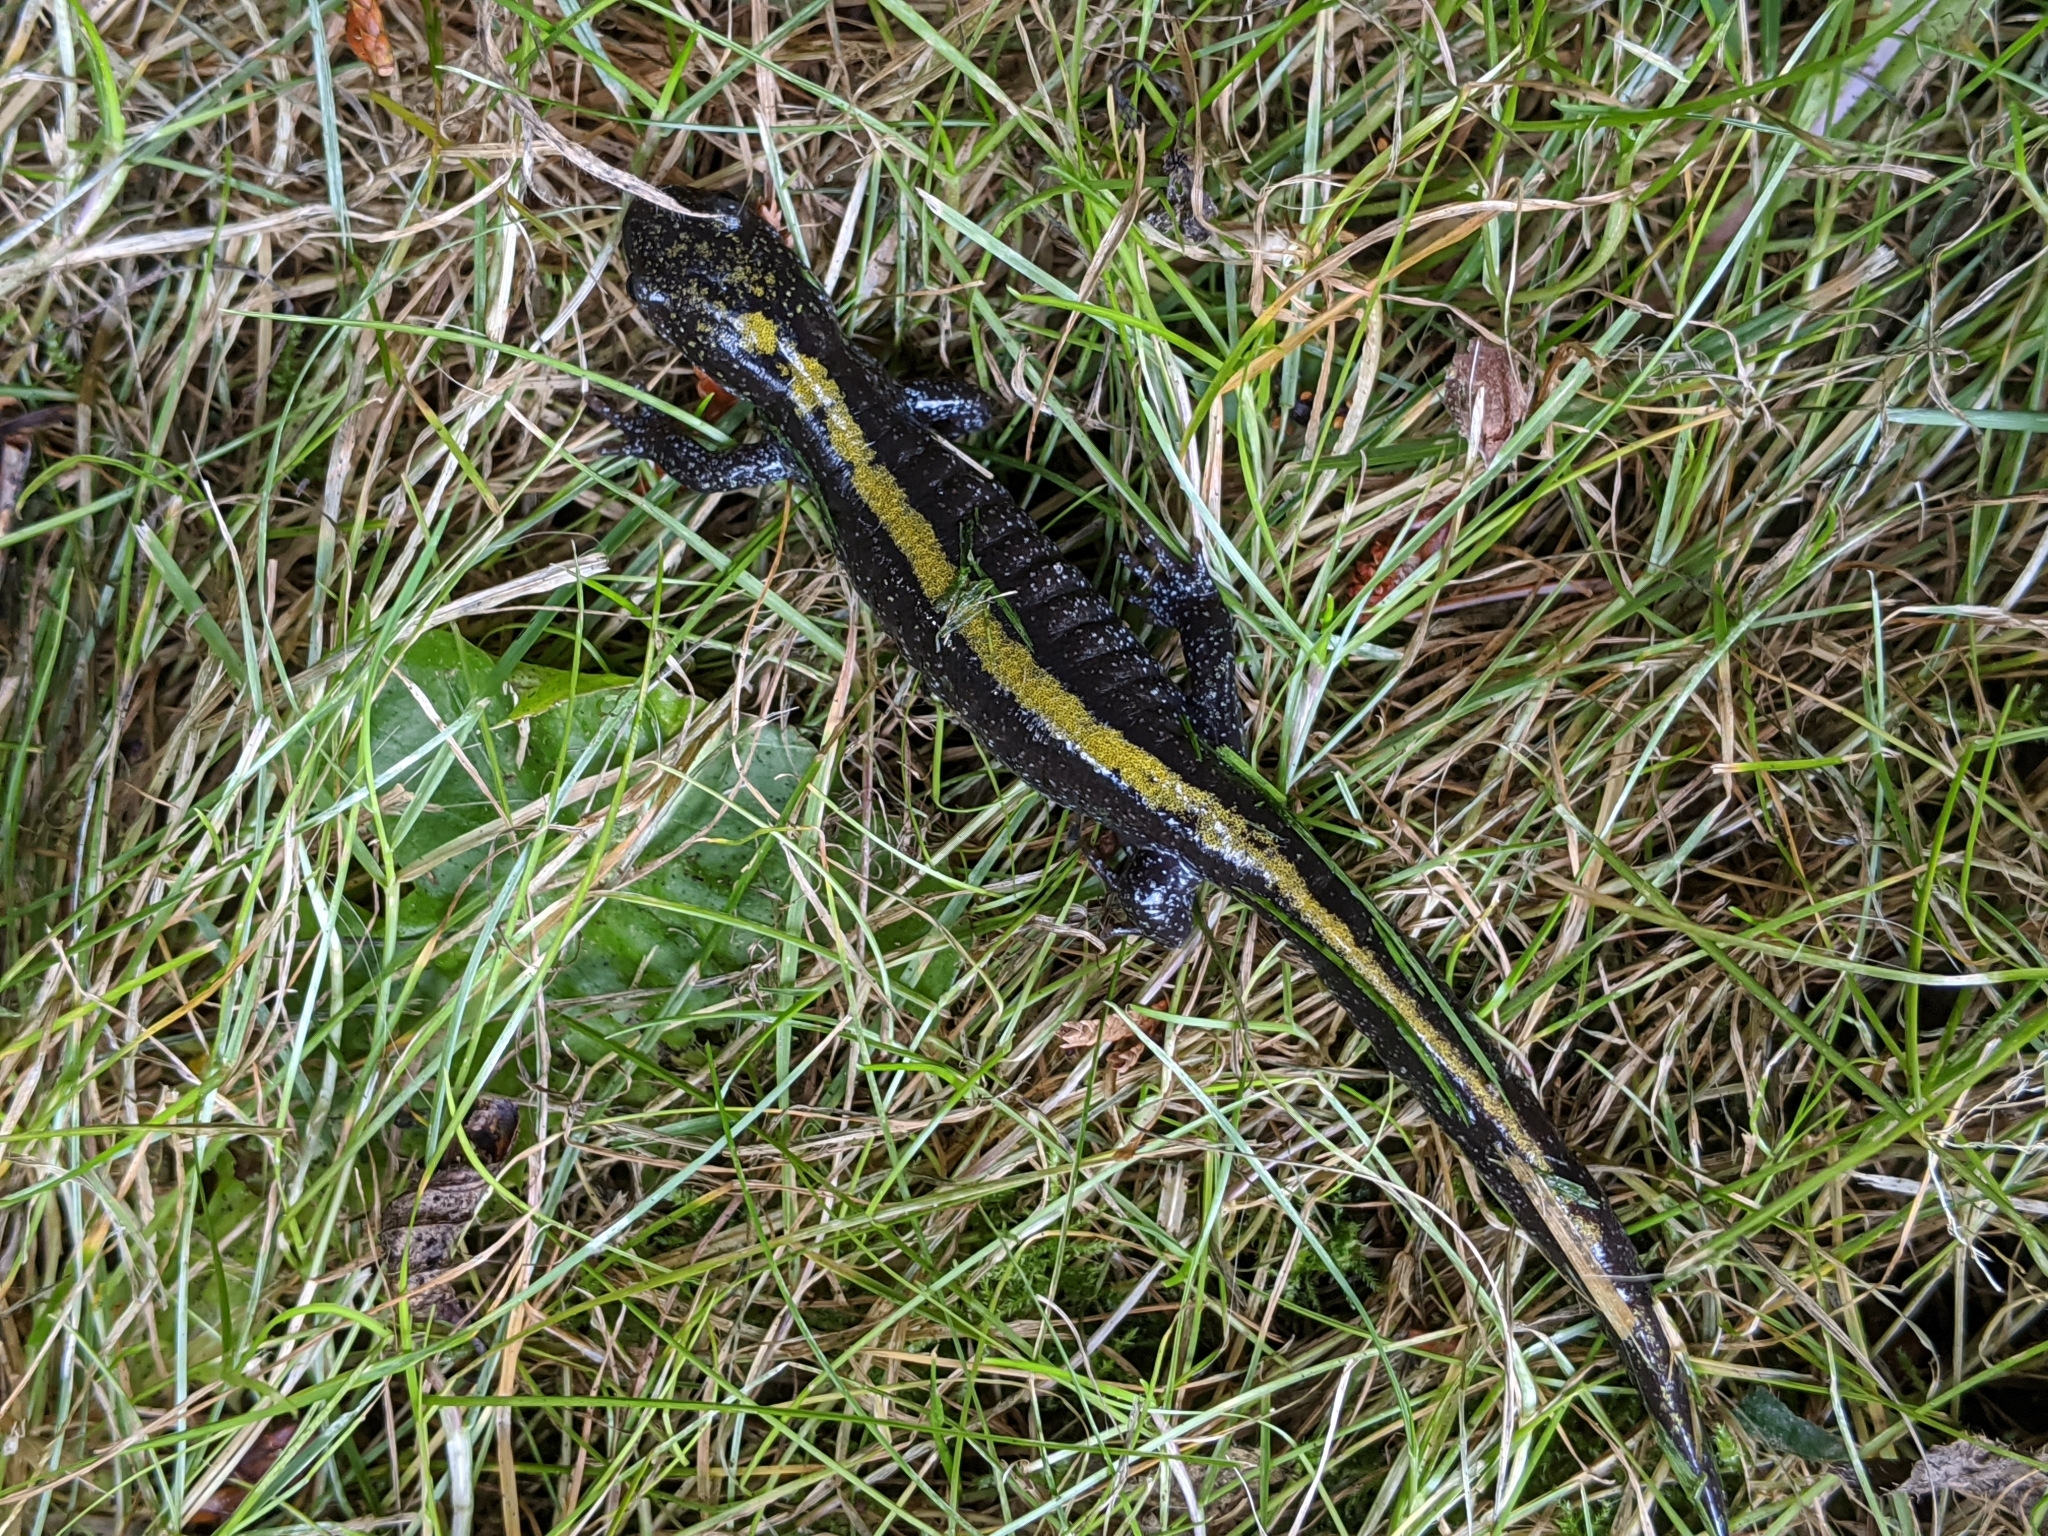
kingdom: Animalia
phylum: Chordata
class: Amphibia
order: Caudata
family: Ambystomatidae
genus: Ambystoma
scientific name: Ambystoma macrodactylum
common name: Long-toed salamander
